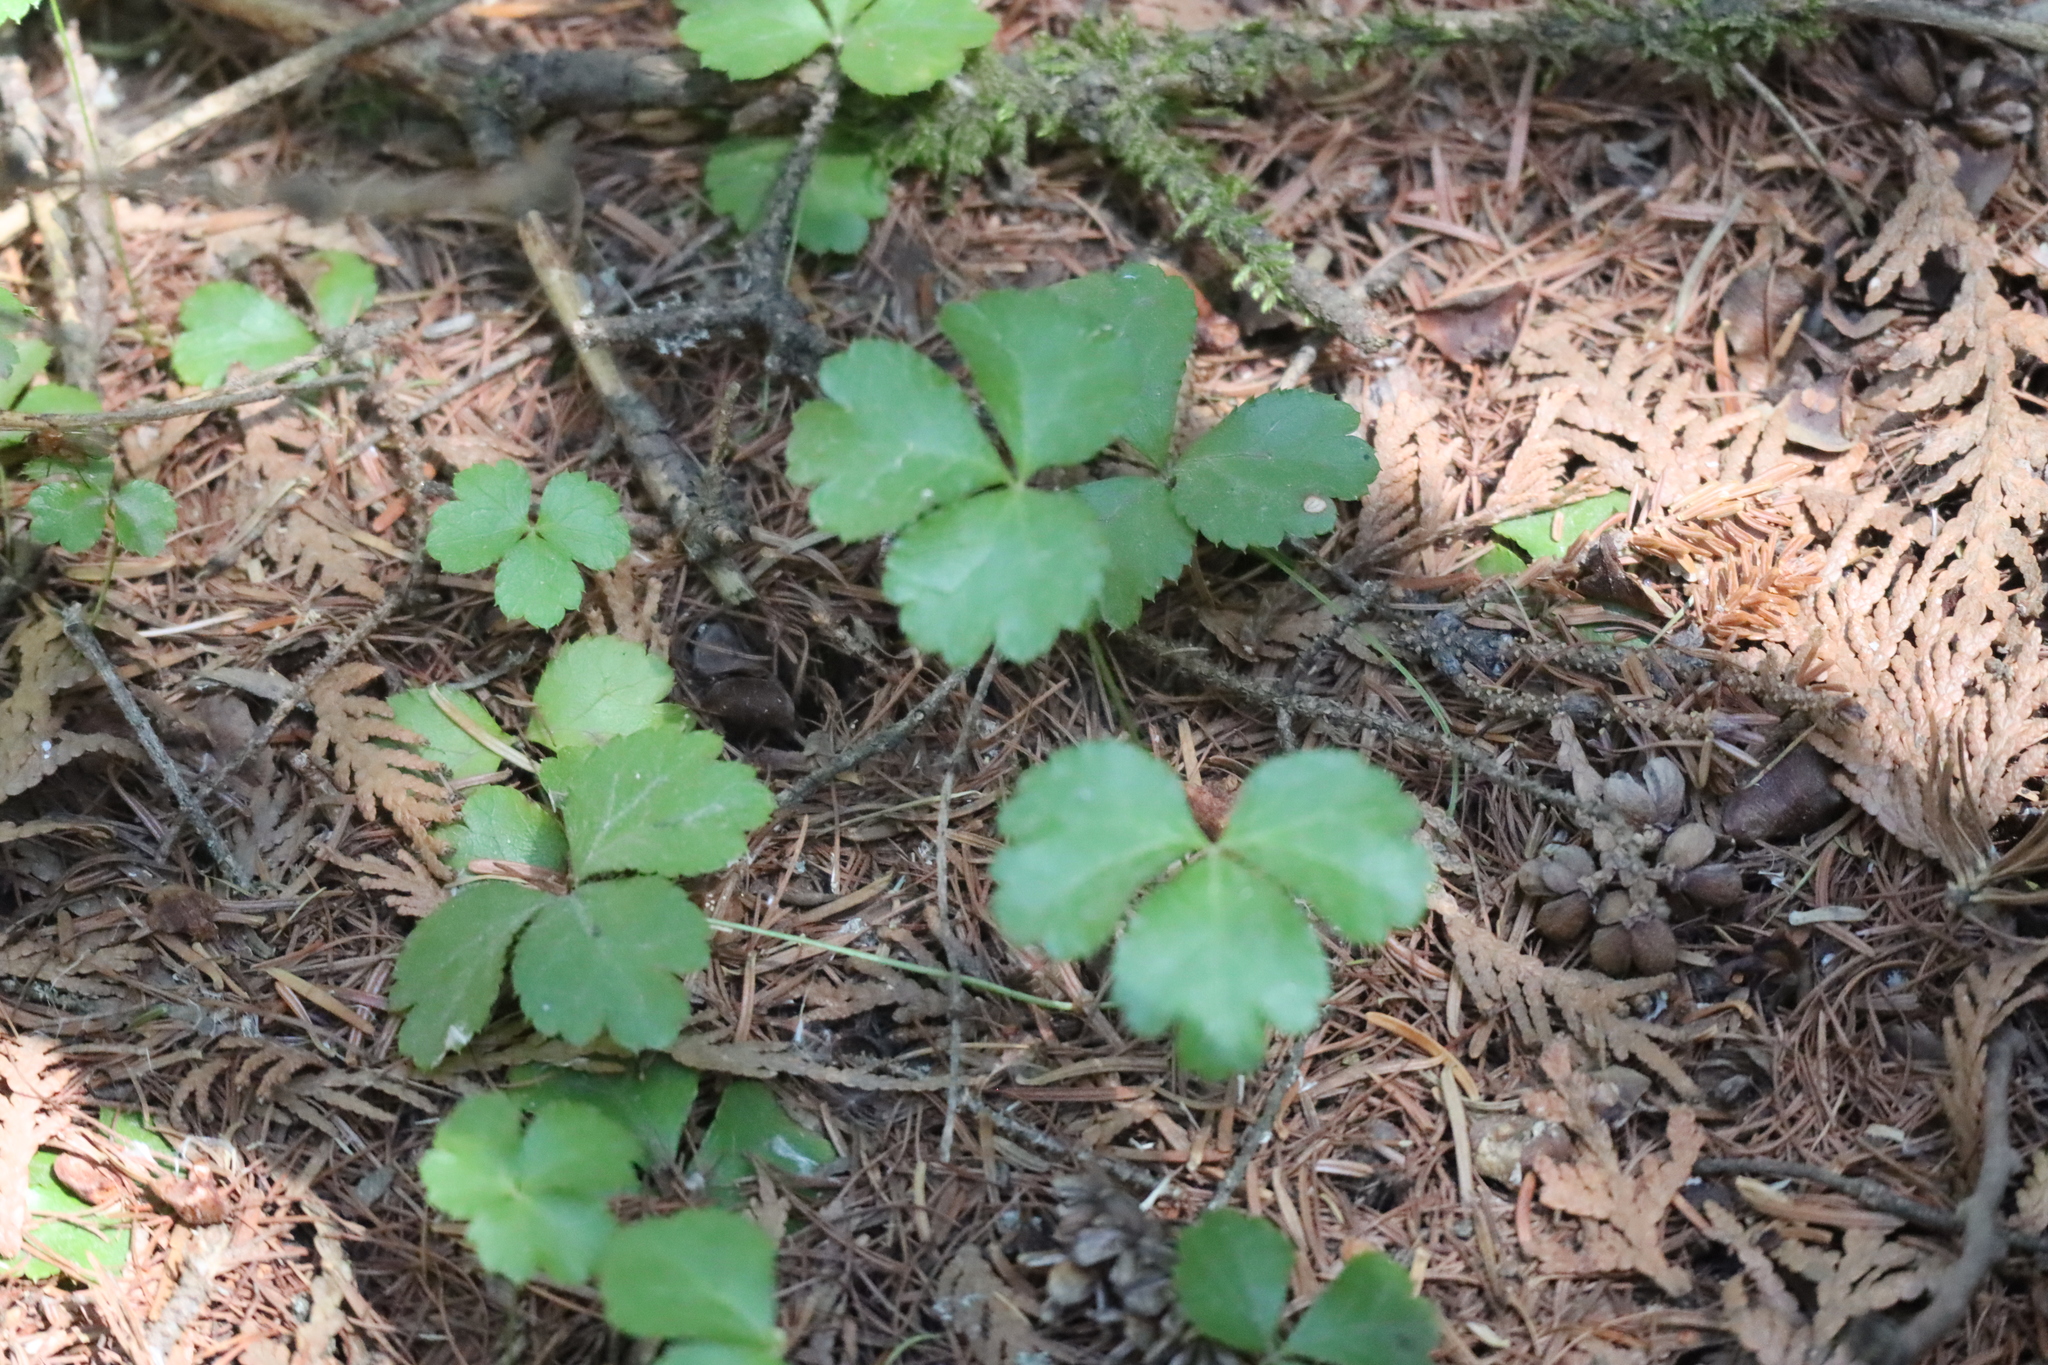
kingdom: Plantae
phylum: Tracheophyta
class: Magnoliopsida
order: Ranunculales
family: Ranunculaceae
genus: Coptis
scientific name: Coptis trifolia
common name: Canker-root
